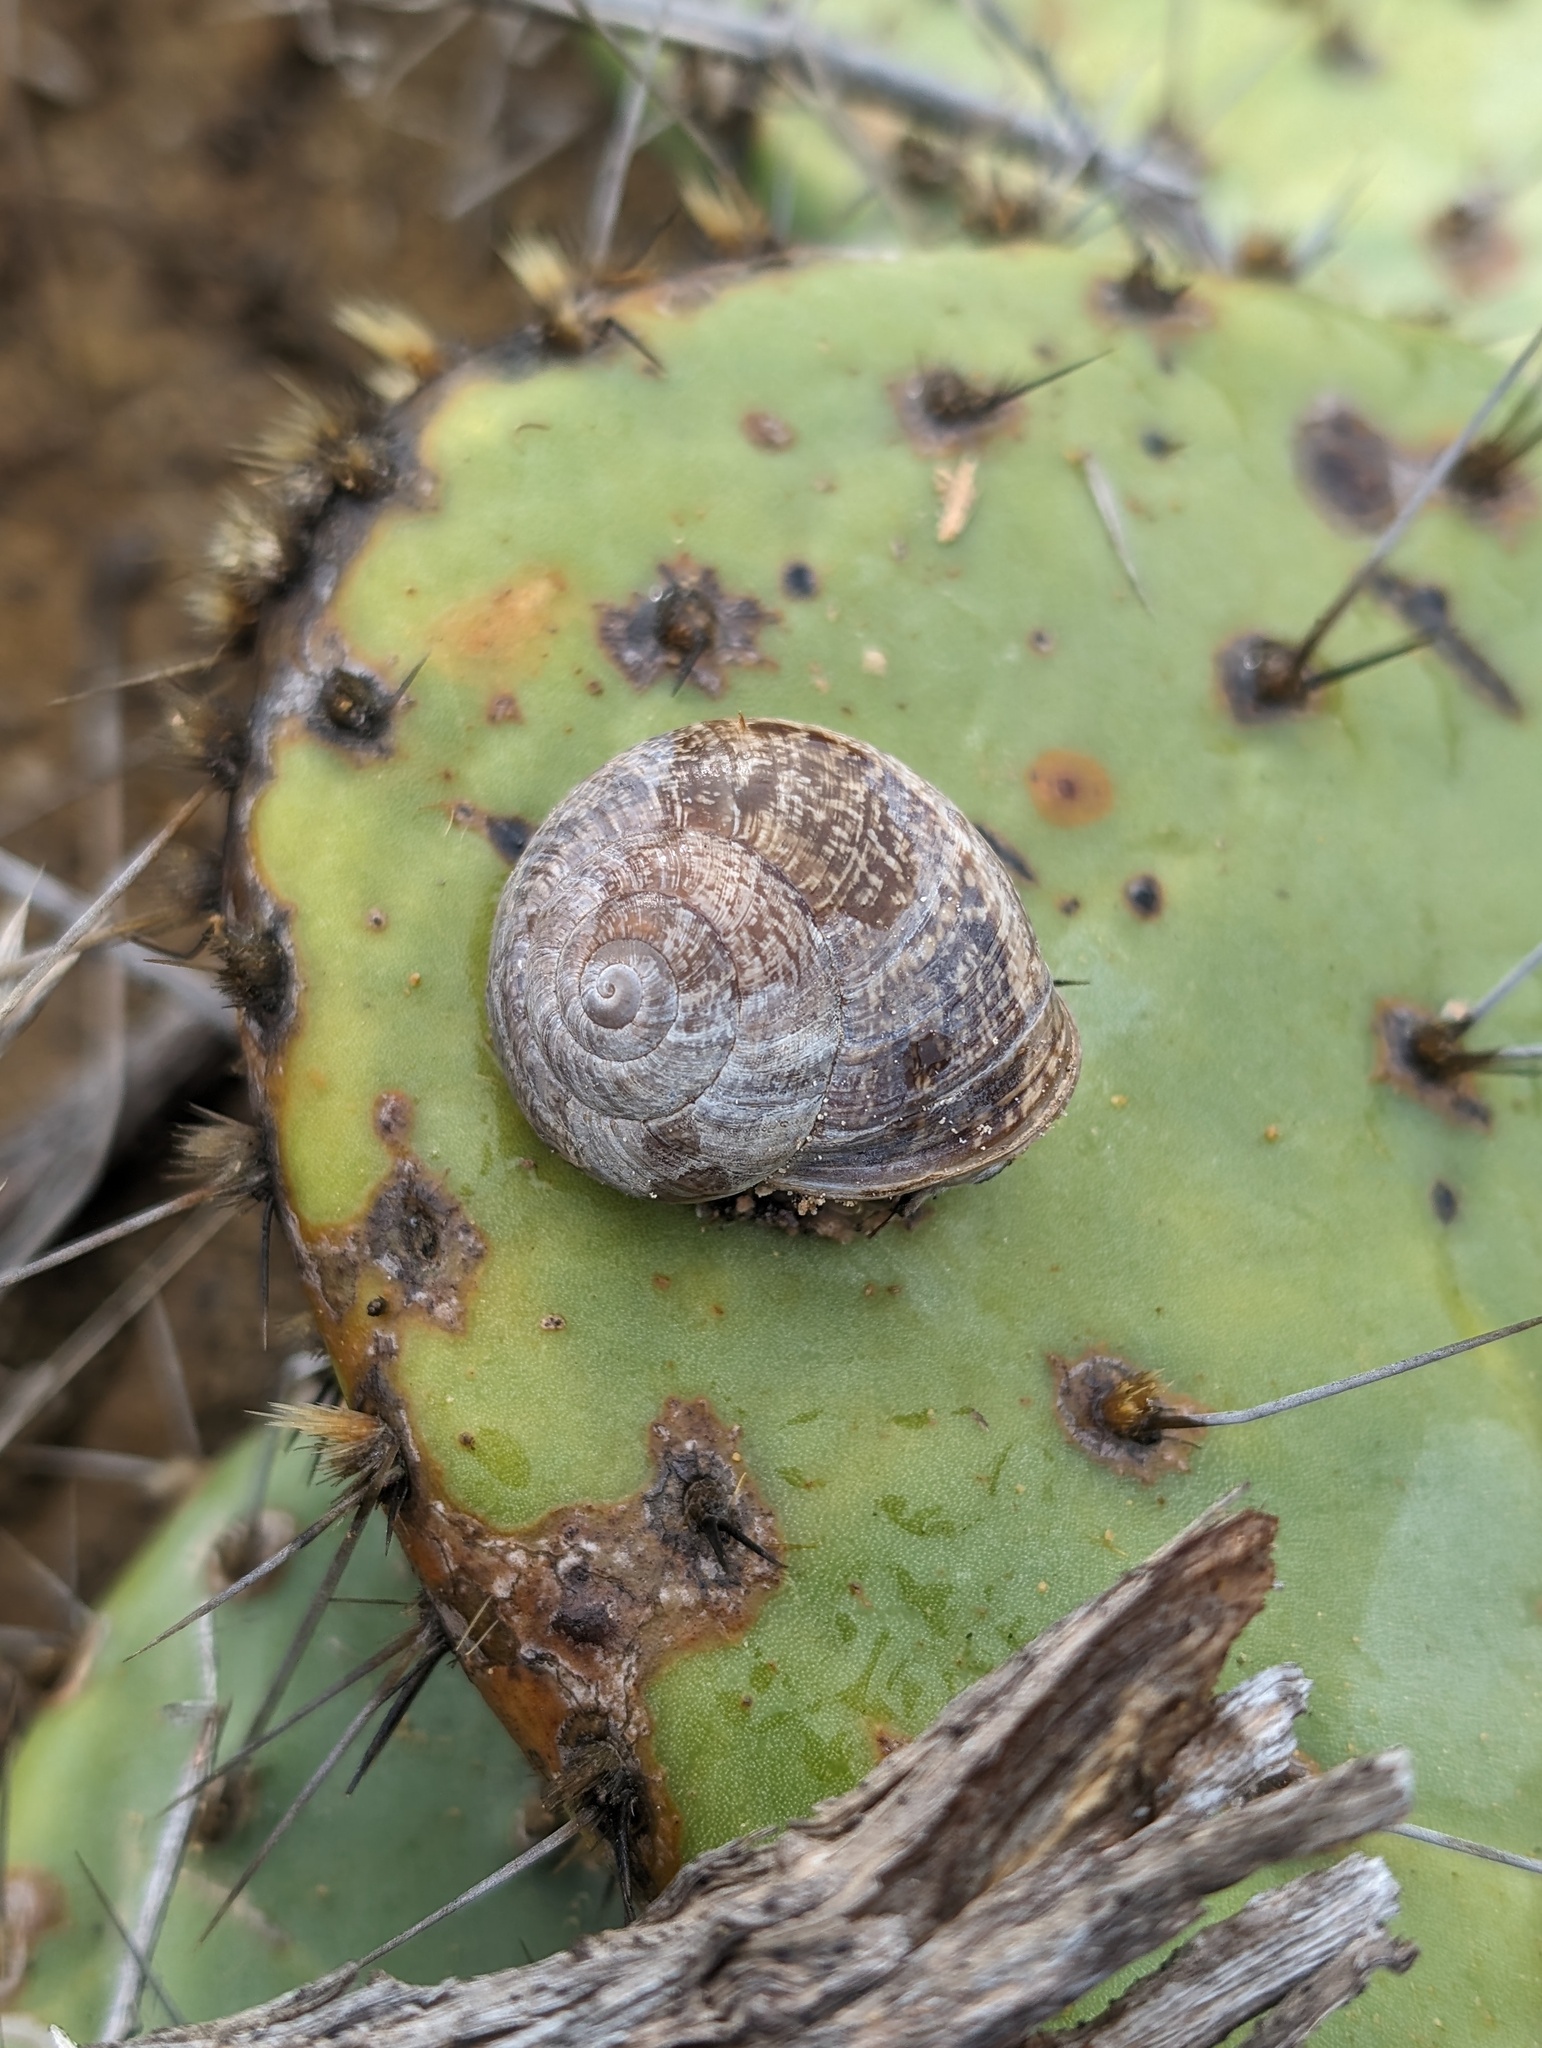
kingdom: Animalia
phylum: Mollusca
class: Gastropoda
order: Stylommatophora
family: Xanthonychidae
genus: Xerarionta
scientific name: Xerarionta kellettii
